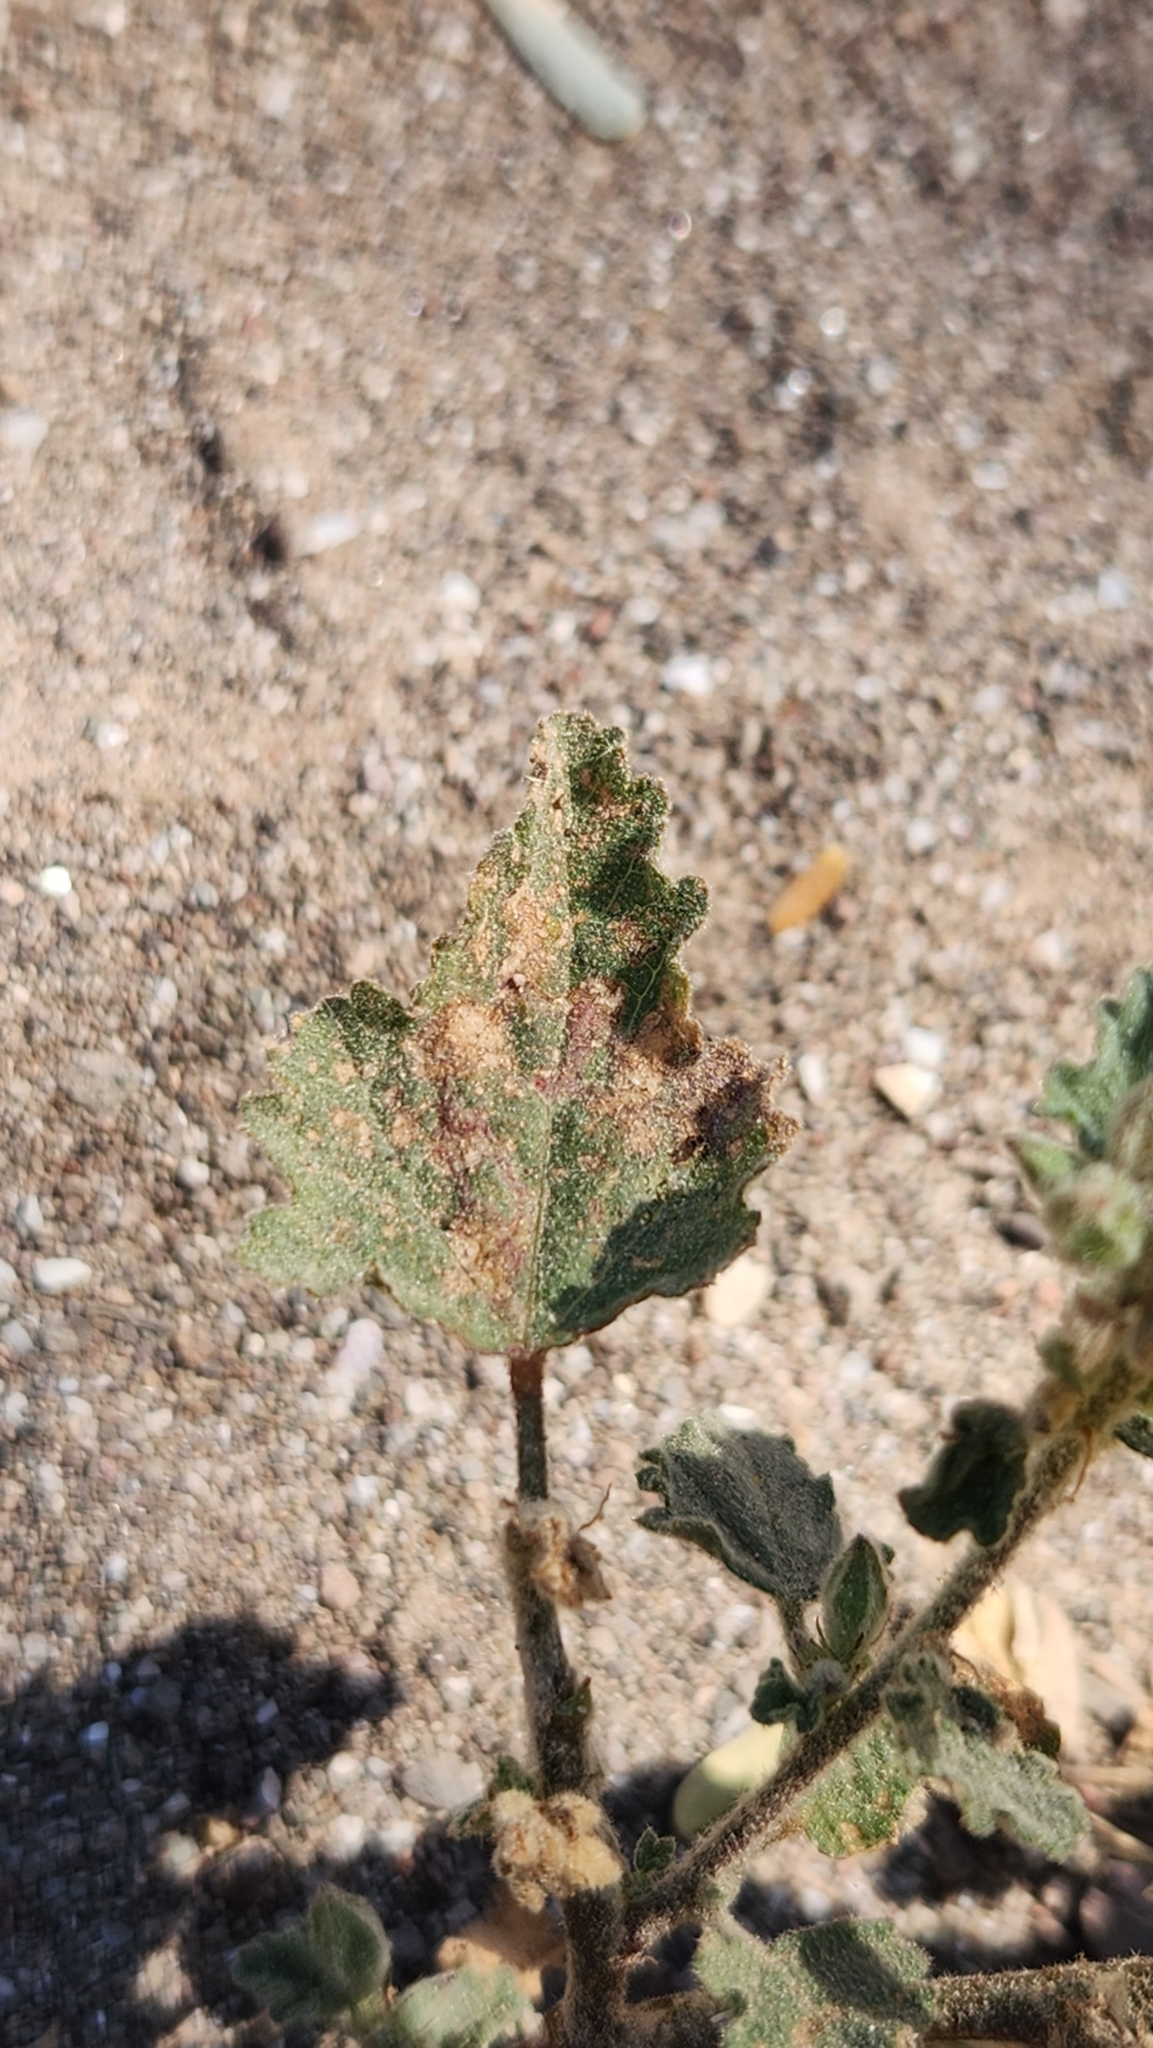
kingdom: Plantae
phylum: Tracheophyta
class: Magnoliopsida
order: Malvales
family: Malvaceae
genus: Sphaeralcea
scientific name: Sphaeralcea coulteri
